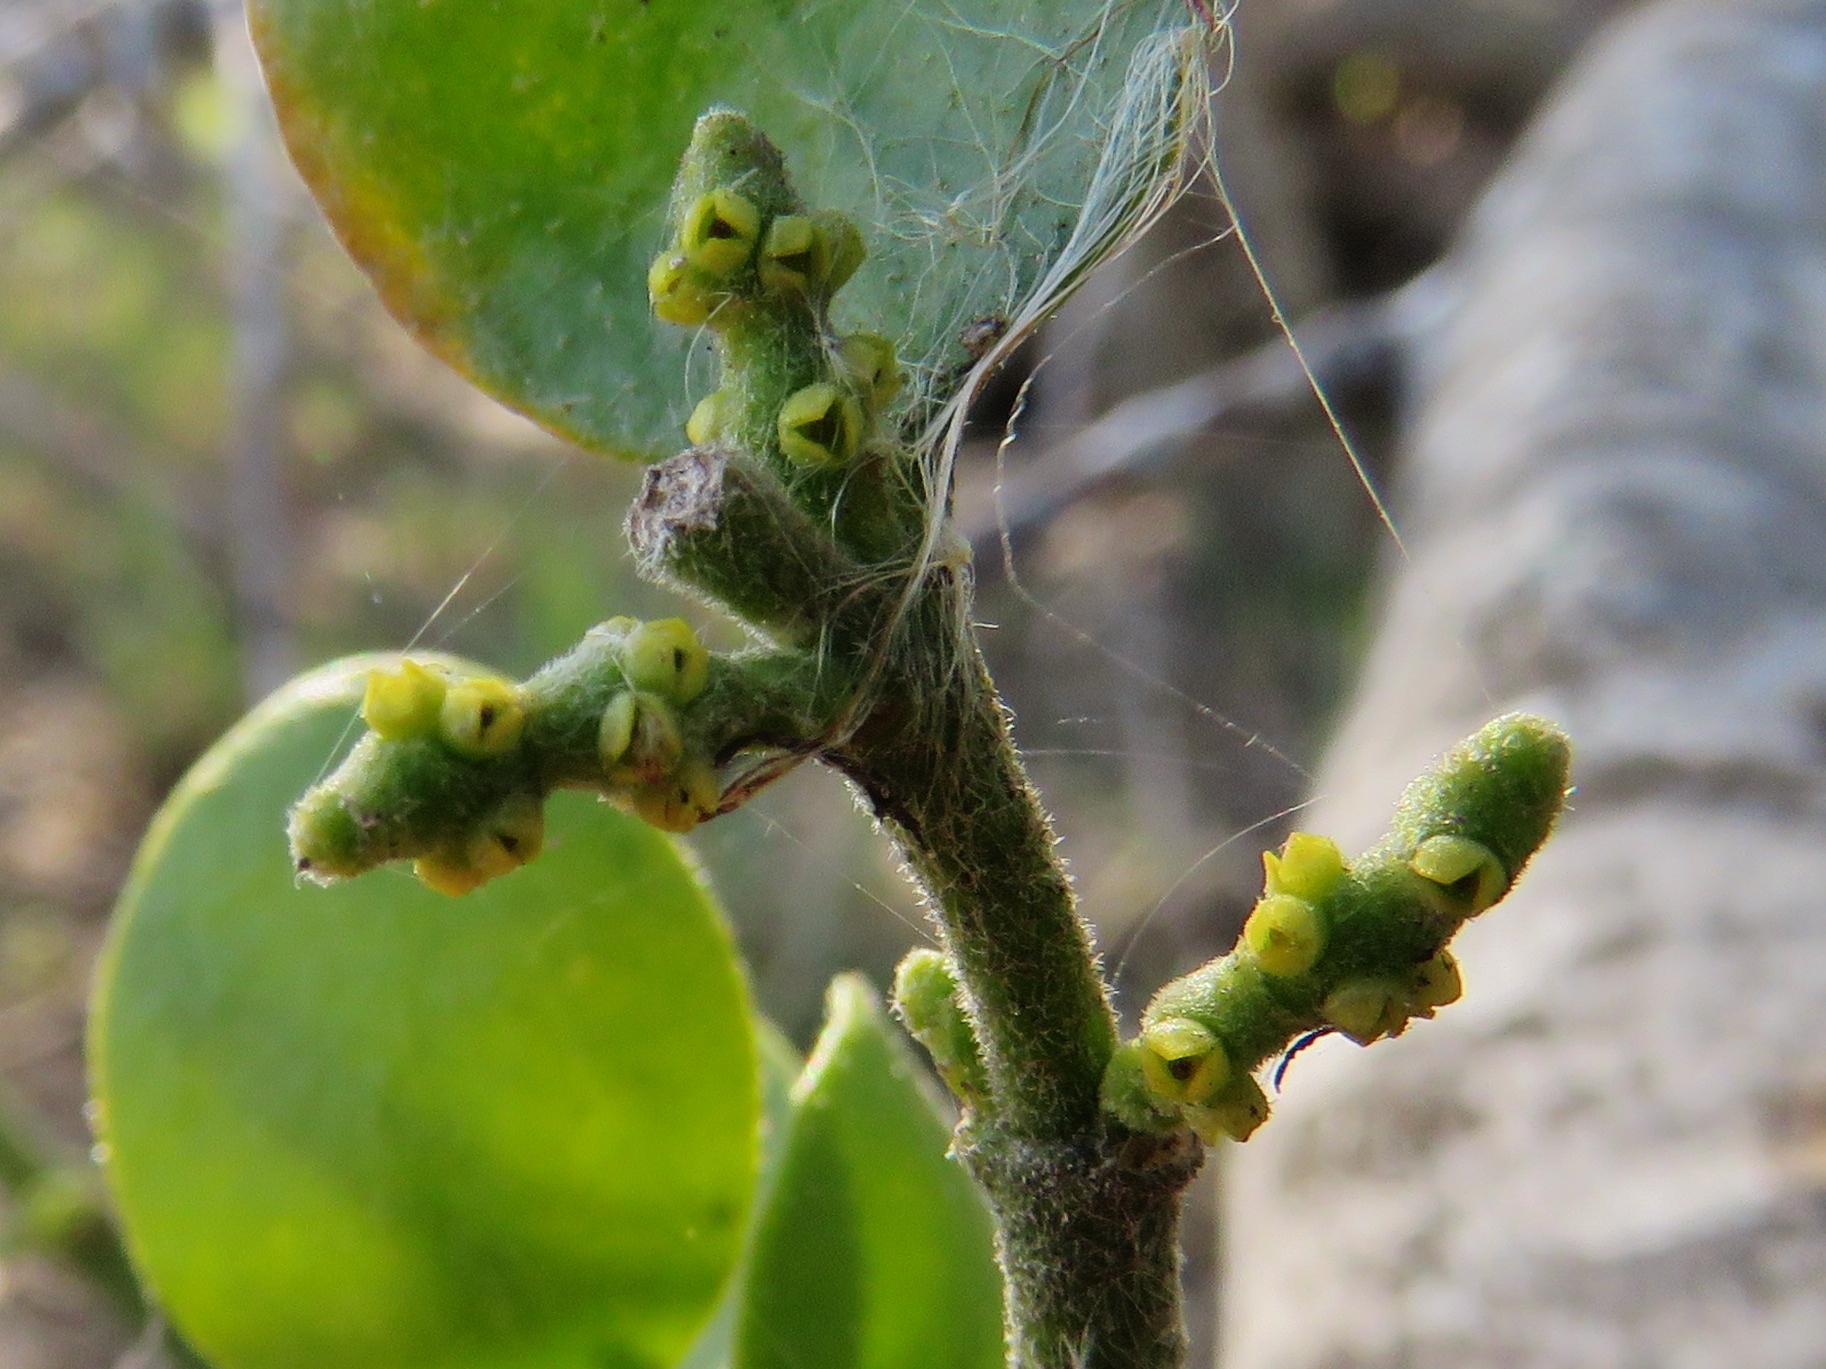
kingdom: Plantae
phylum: Tracheophyta
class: Magnoliopsida
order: Santalales
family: Viscaceae
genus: Phoradendron
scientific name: Phoradendron leucarpum
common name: Pacific mistletoe
